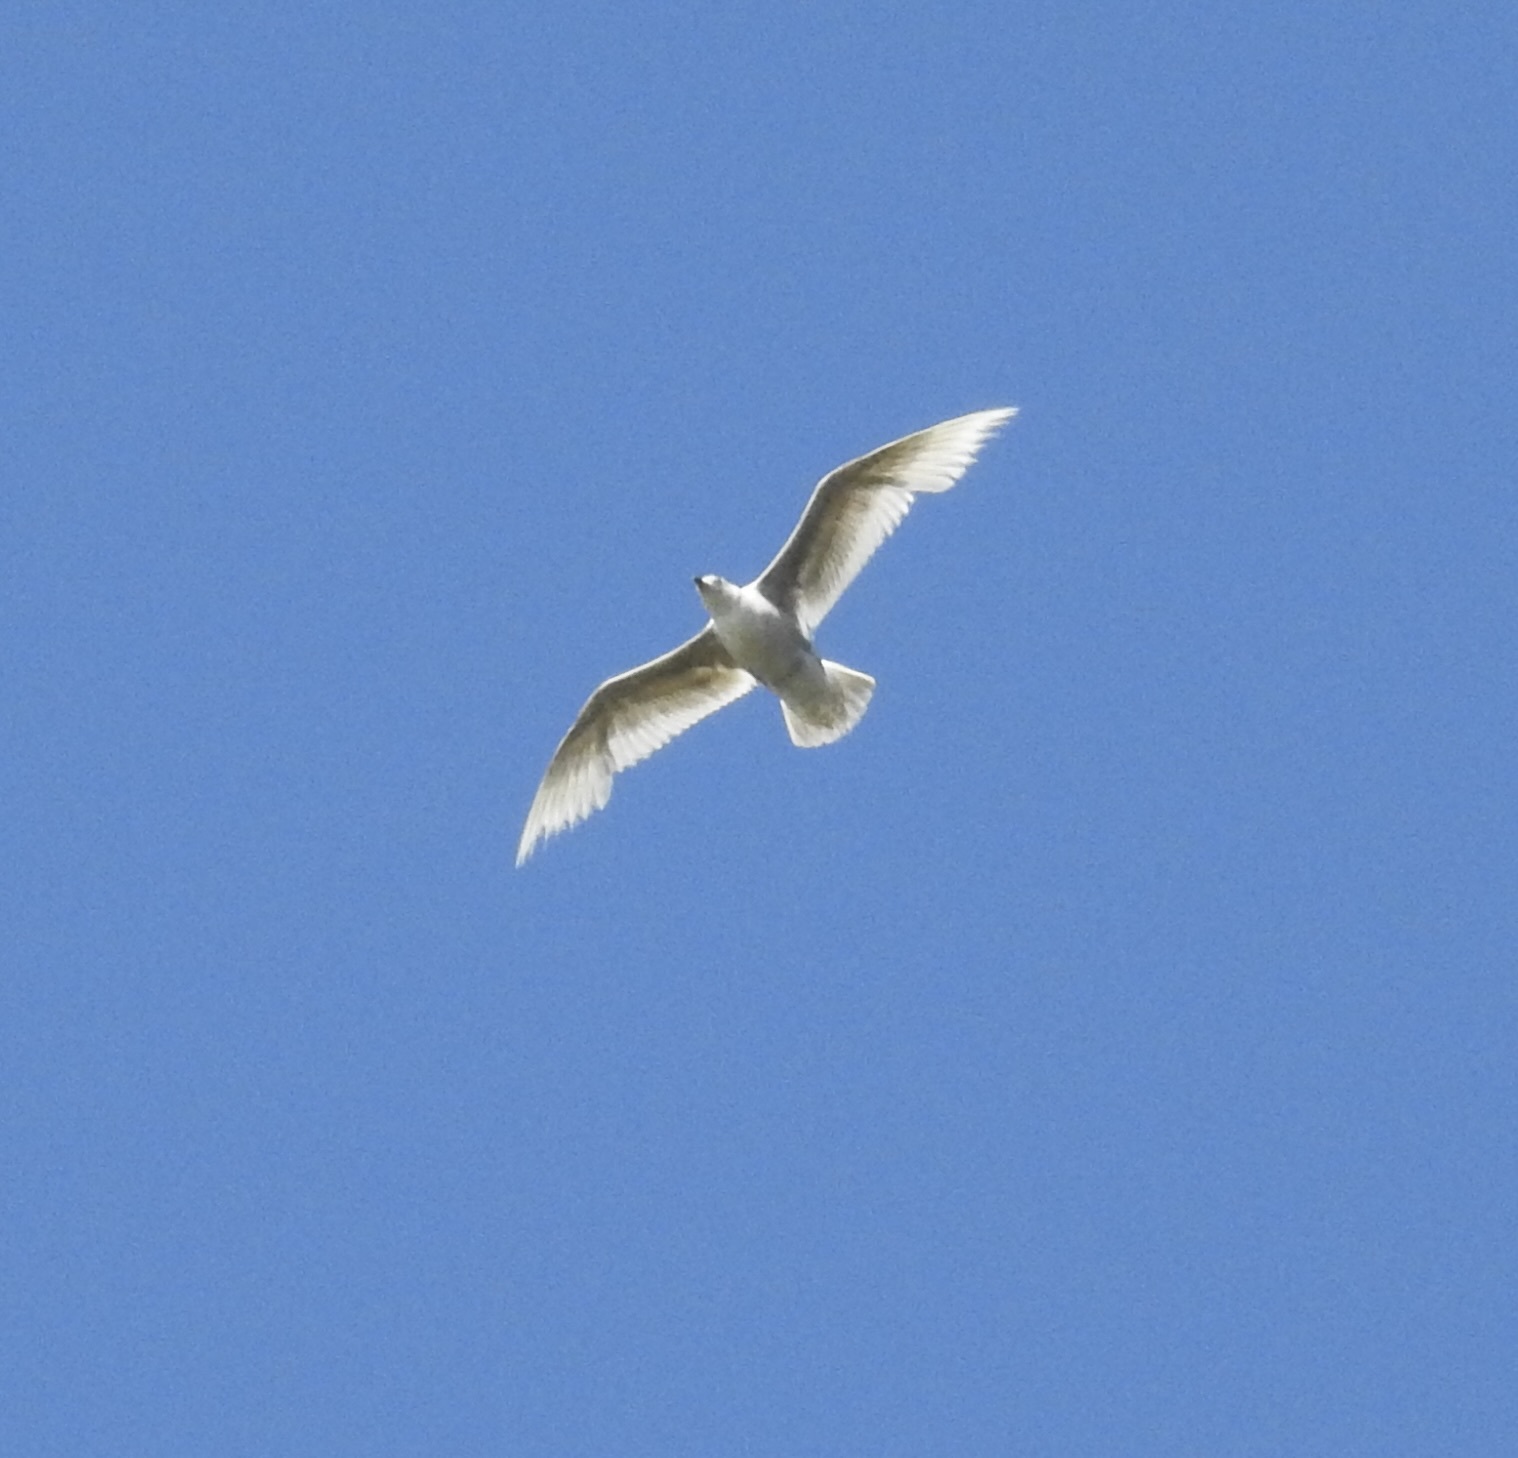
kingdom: Animalia
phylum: Chordata
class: Aves
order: Charadriiformes
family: Laridae
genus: Larus
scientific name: Larus glaucescens
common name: Glaucous-winged gull
